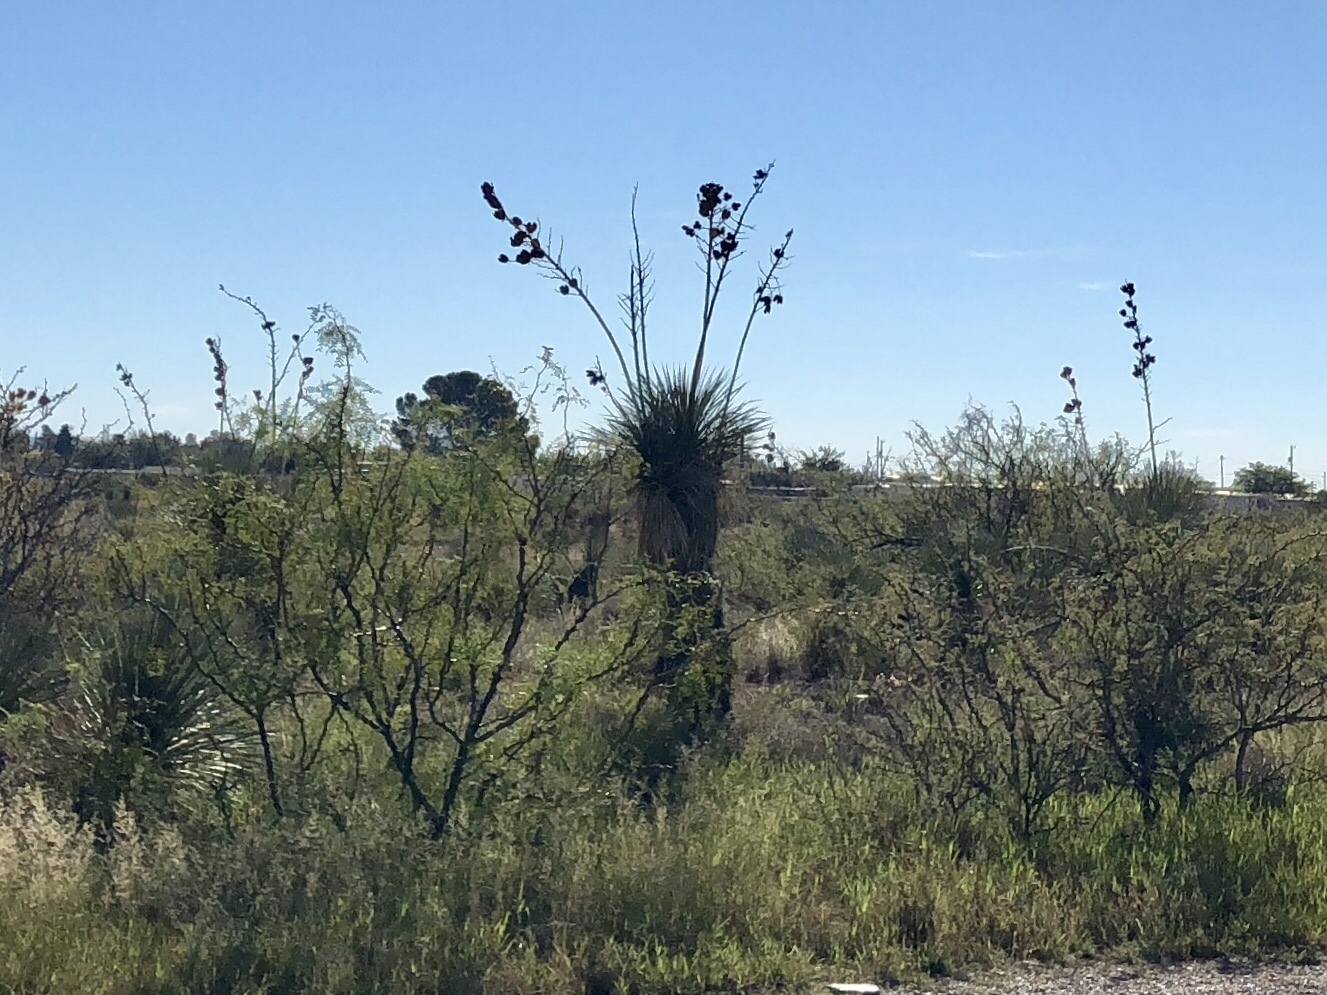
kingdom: Plantae
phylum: Tracheophyta
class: Liliopsida
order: Asparagales
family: Asparagaceae
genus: Yucca
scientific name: Yucca elata
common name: Palmella
